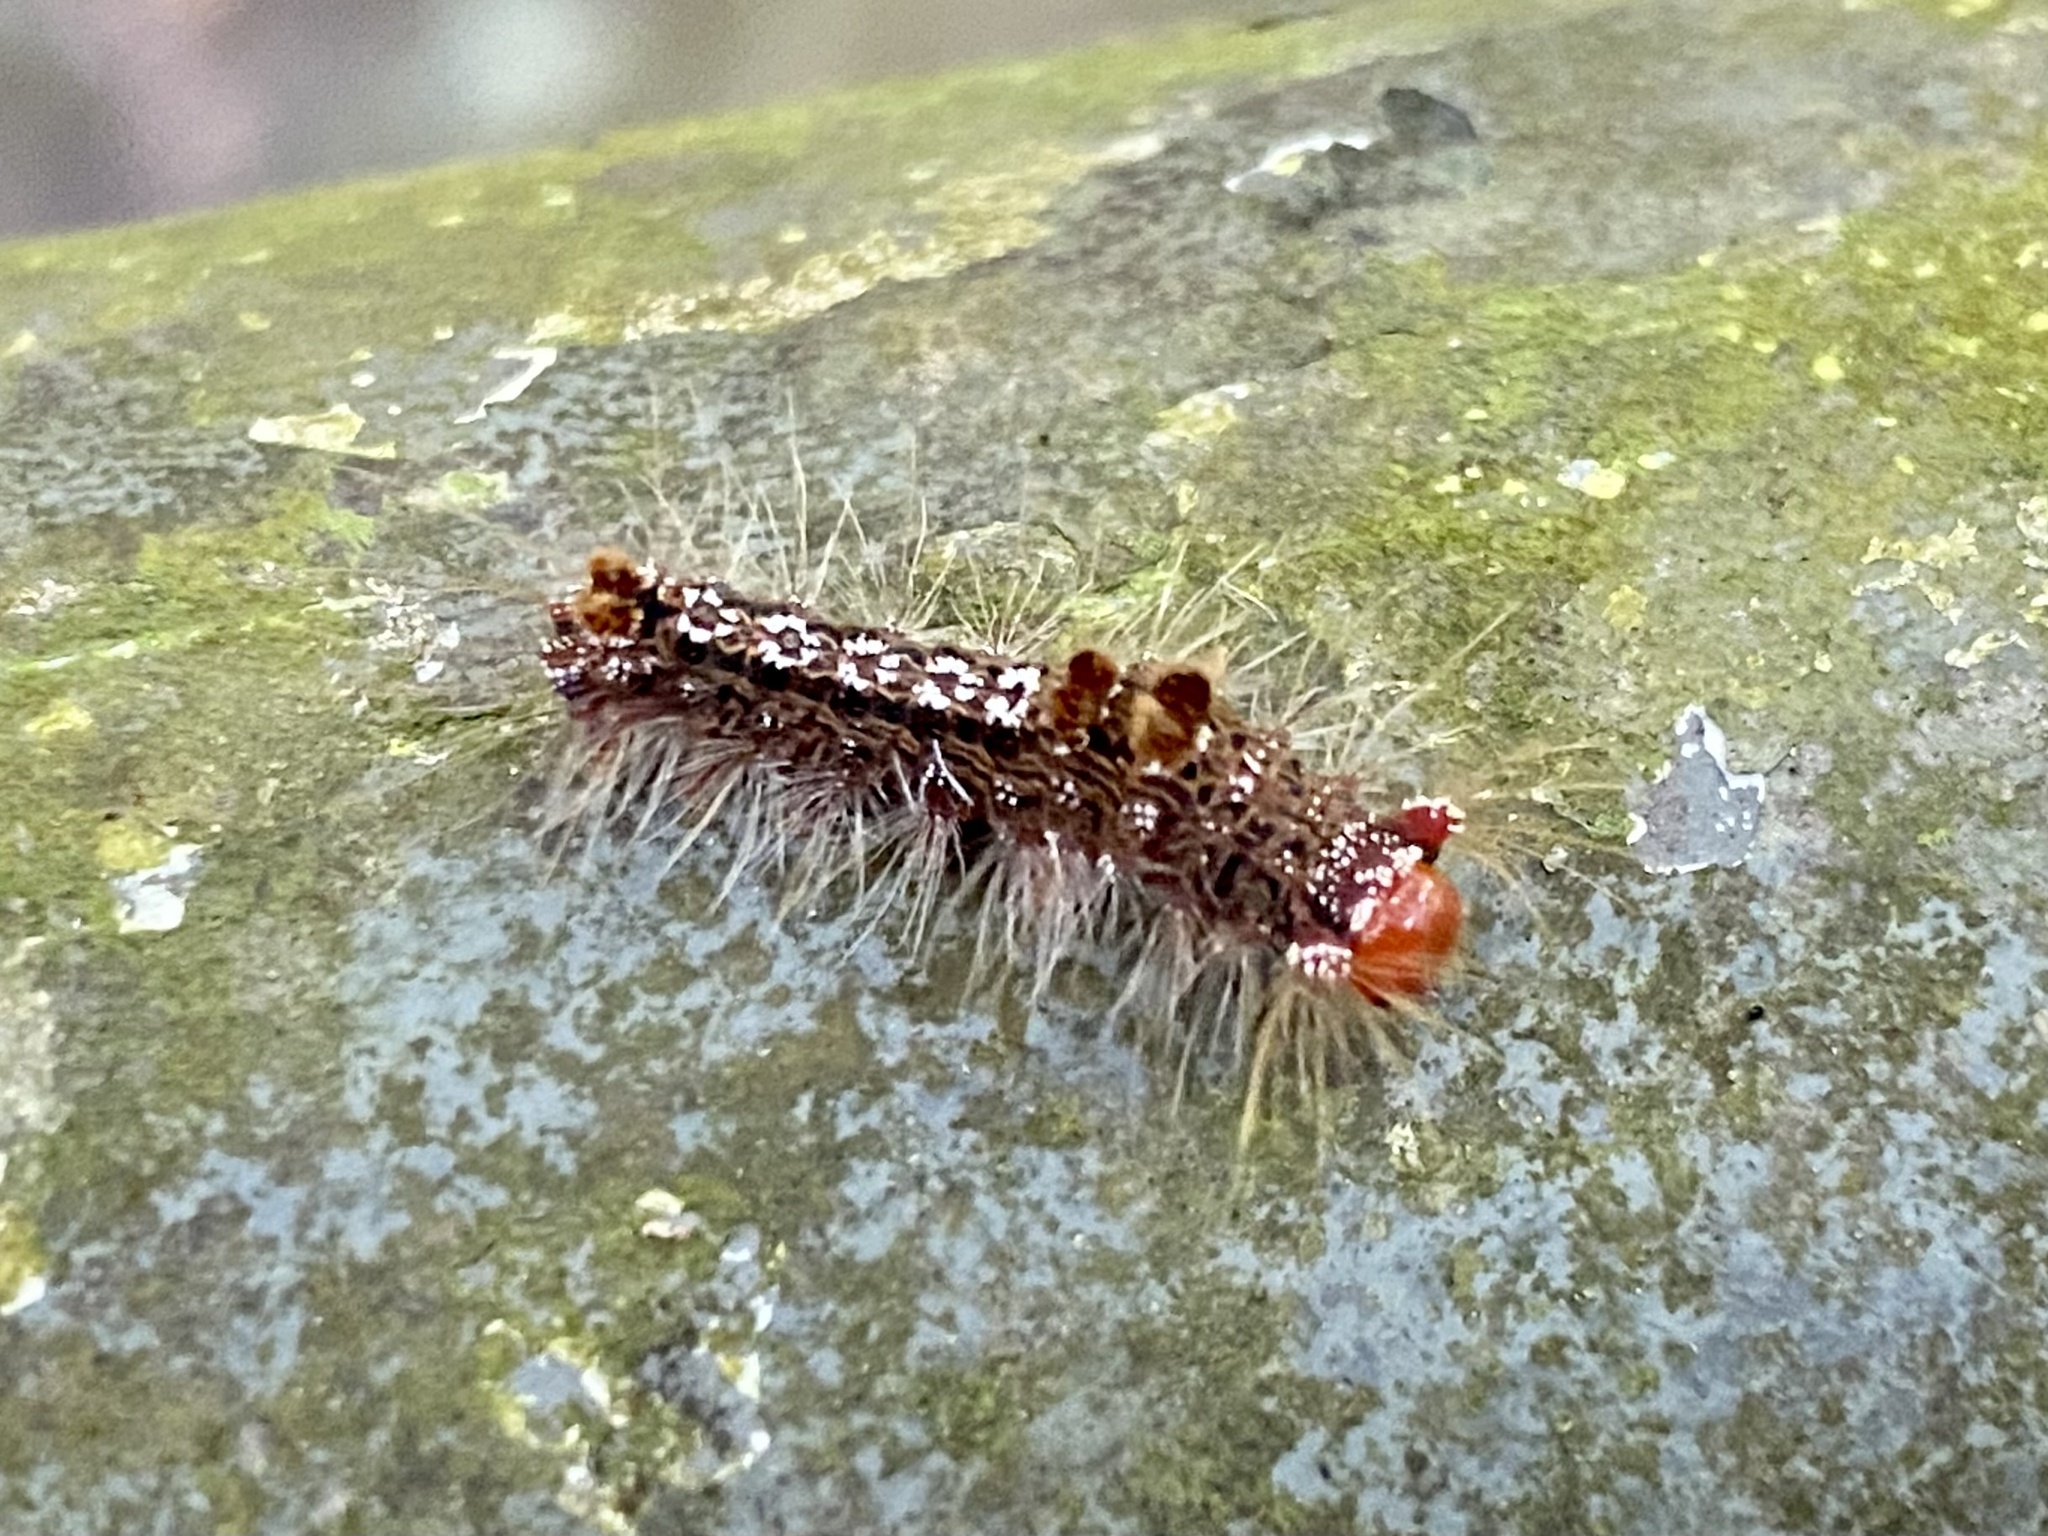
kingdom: Animalia
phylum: Arthropoda
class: Insecta
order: Lepidoptera
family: Erebidae
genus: Nygmia
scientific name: Nygmia plana
